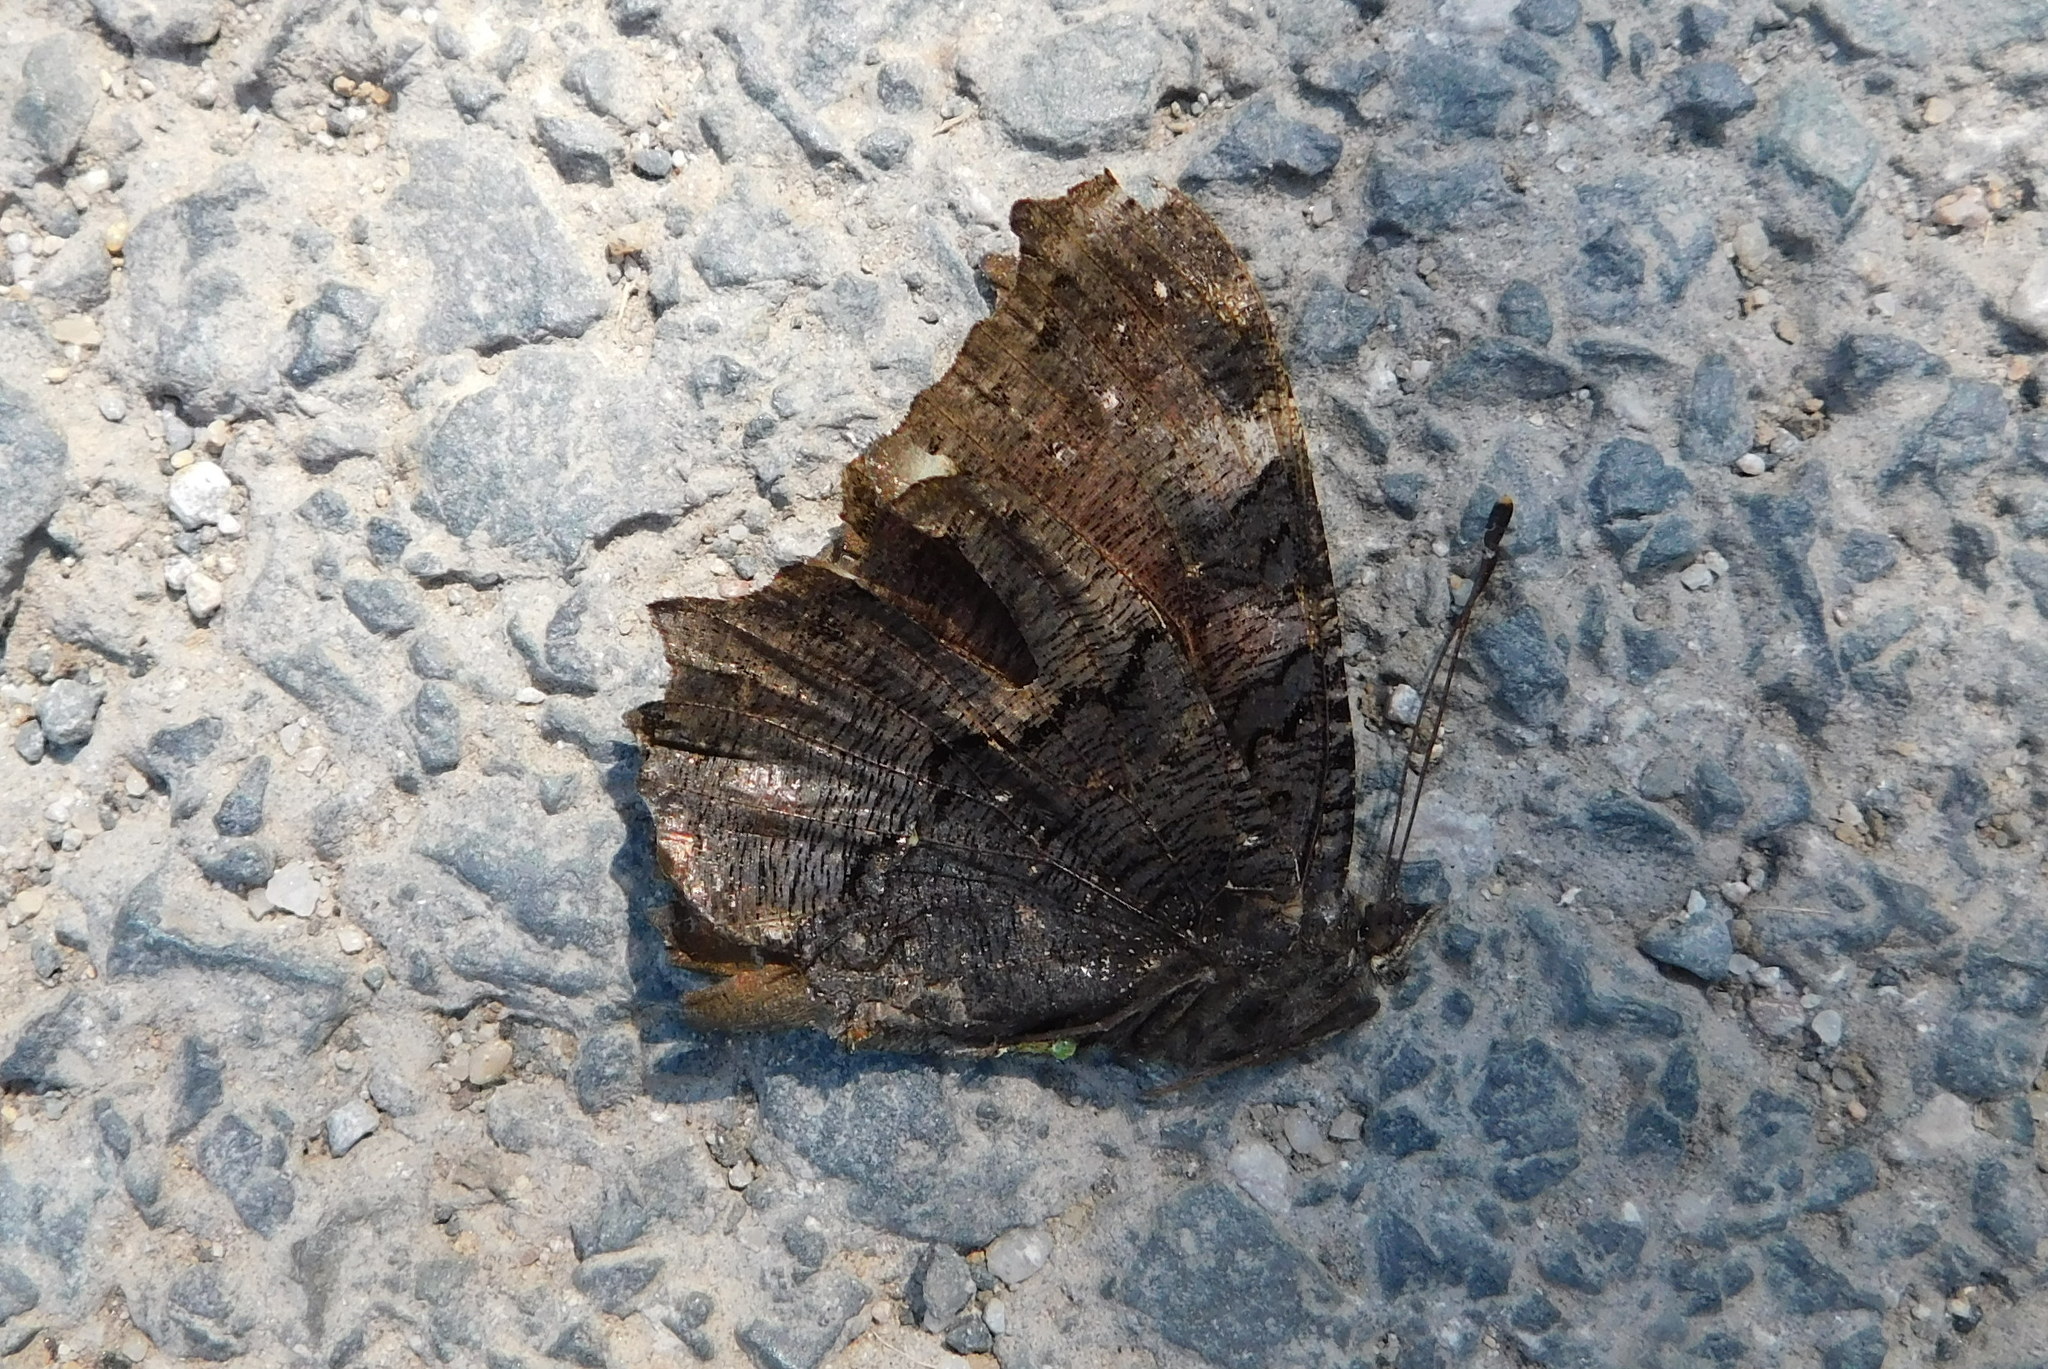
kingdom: Animalia
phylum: Arthropoda
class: Insecta
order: Lepidoptera
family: Nymphalidae
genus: Aglais
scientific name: Aglais io
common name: Peacock
